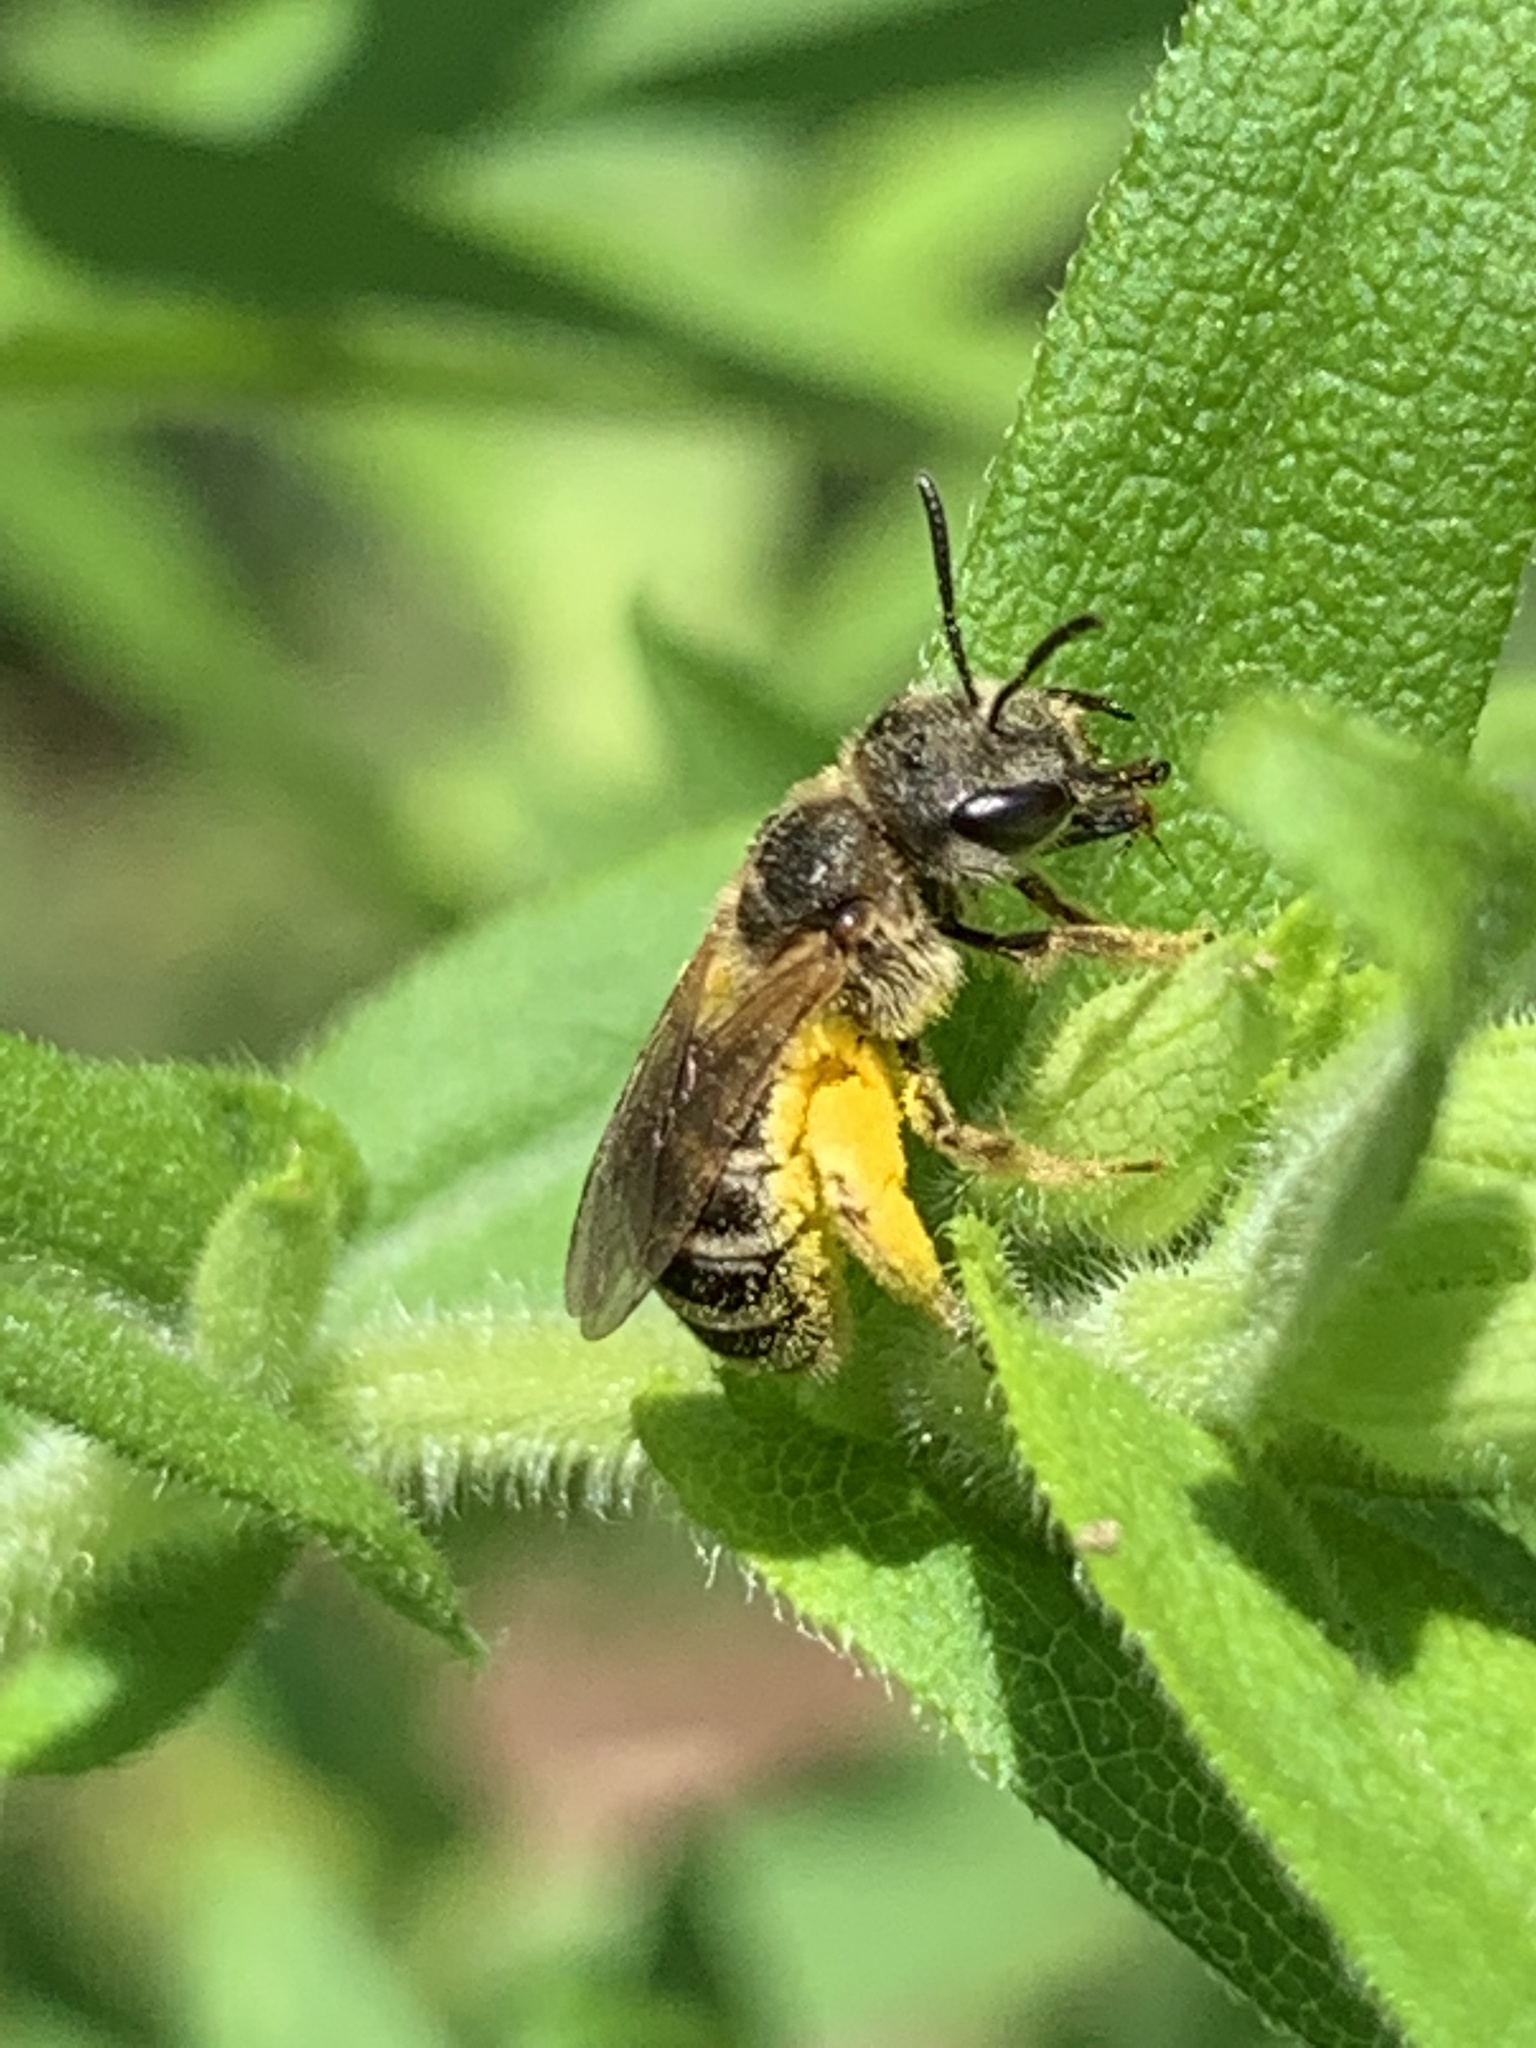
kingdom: Animalia
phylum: Arthropoda
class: Insecta
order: Hymenoptera
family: Halictidae
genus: Halictus
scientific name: Halictus ligatus
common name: Ligated furrow bee
